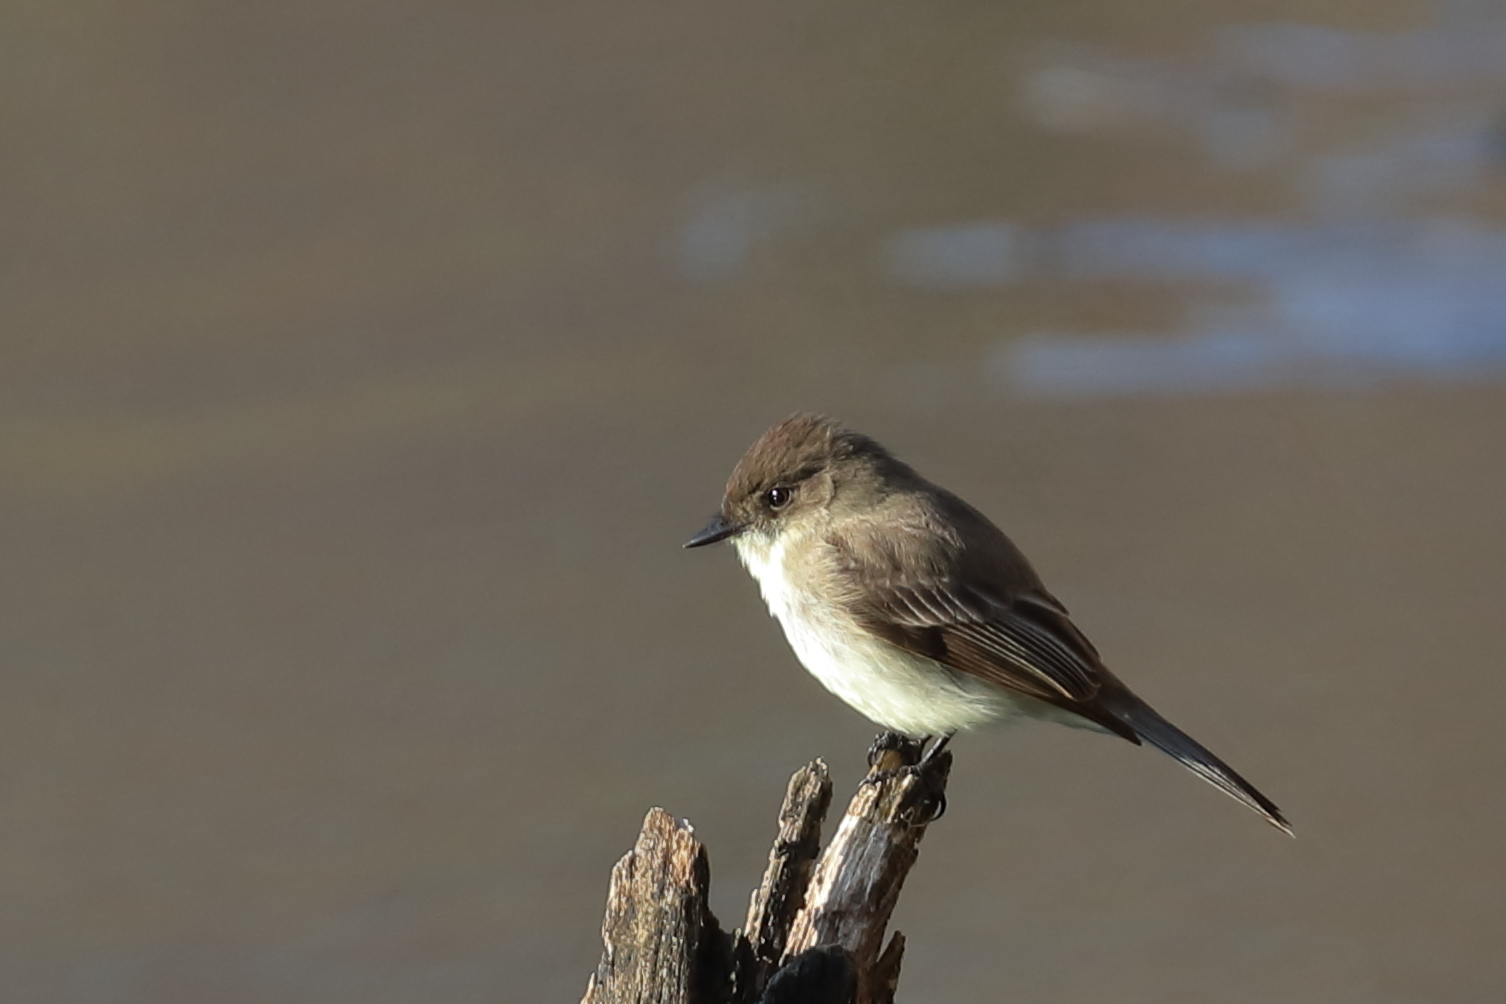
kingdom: Animalia
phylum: Chordata
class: Aves
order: Passeriformes
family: Tyrannidae
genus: Sayornis
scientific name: Sayornis phoebe
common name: Eastern phoebe
